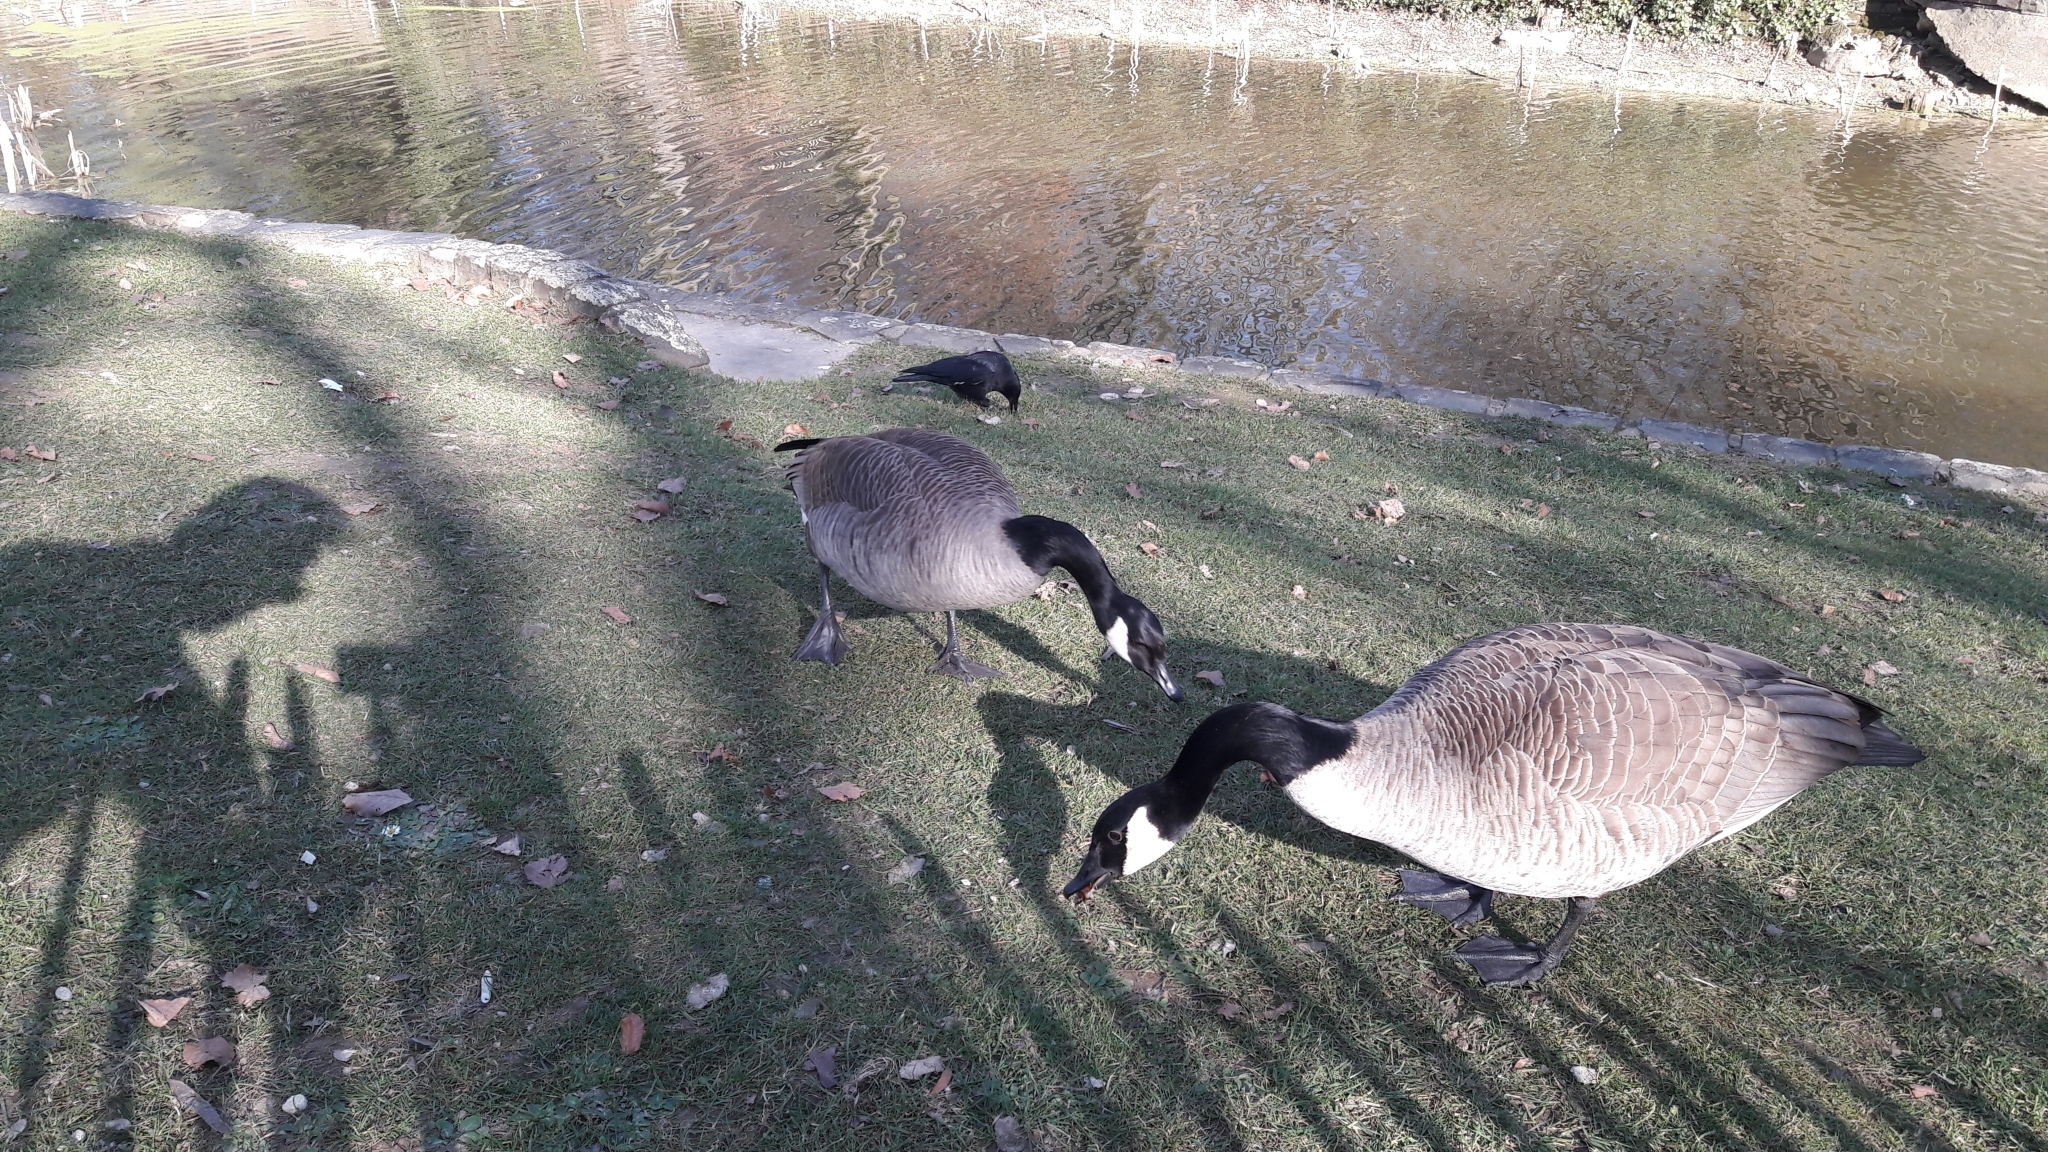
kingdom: Animalia
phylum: Chordata
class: Aves
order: Anseriformes
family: Anatidae
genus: Branta
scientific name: Branta canadensis
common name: Canada goose
